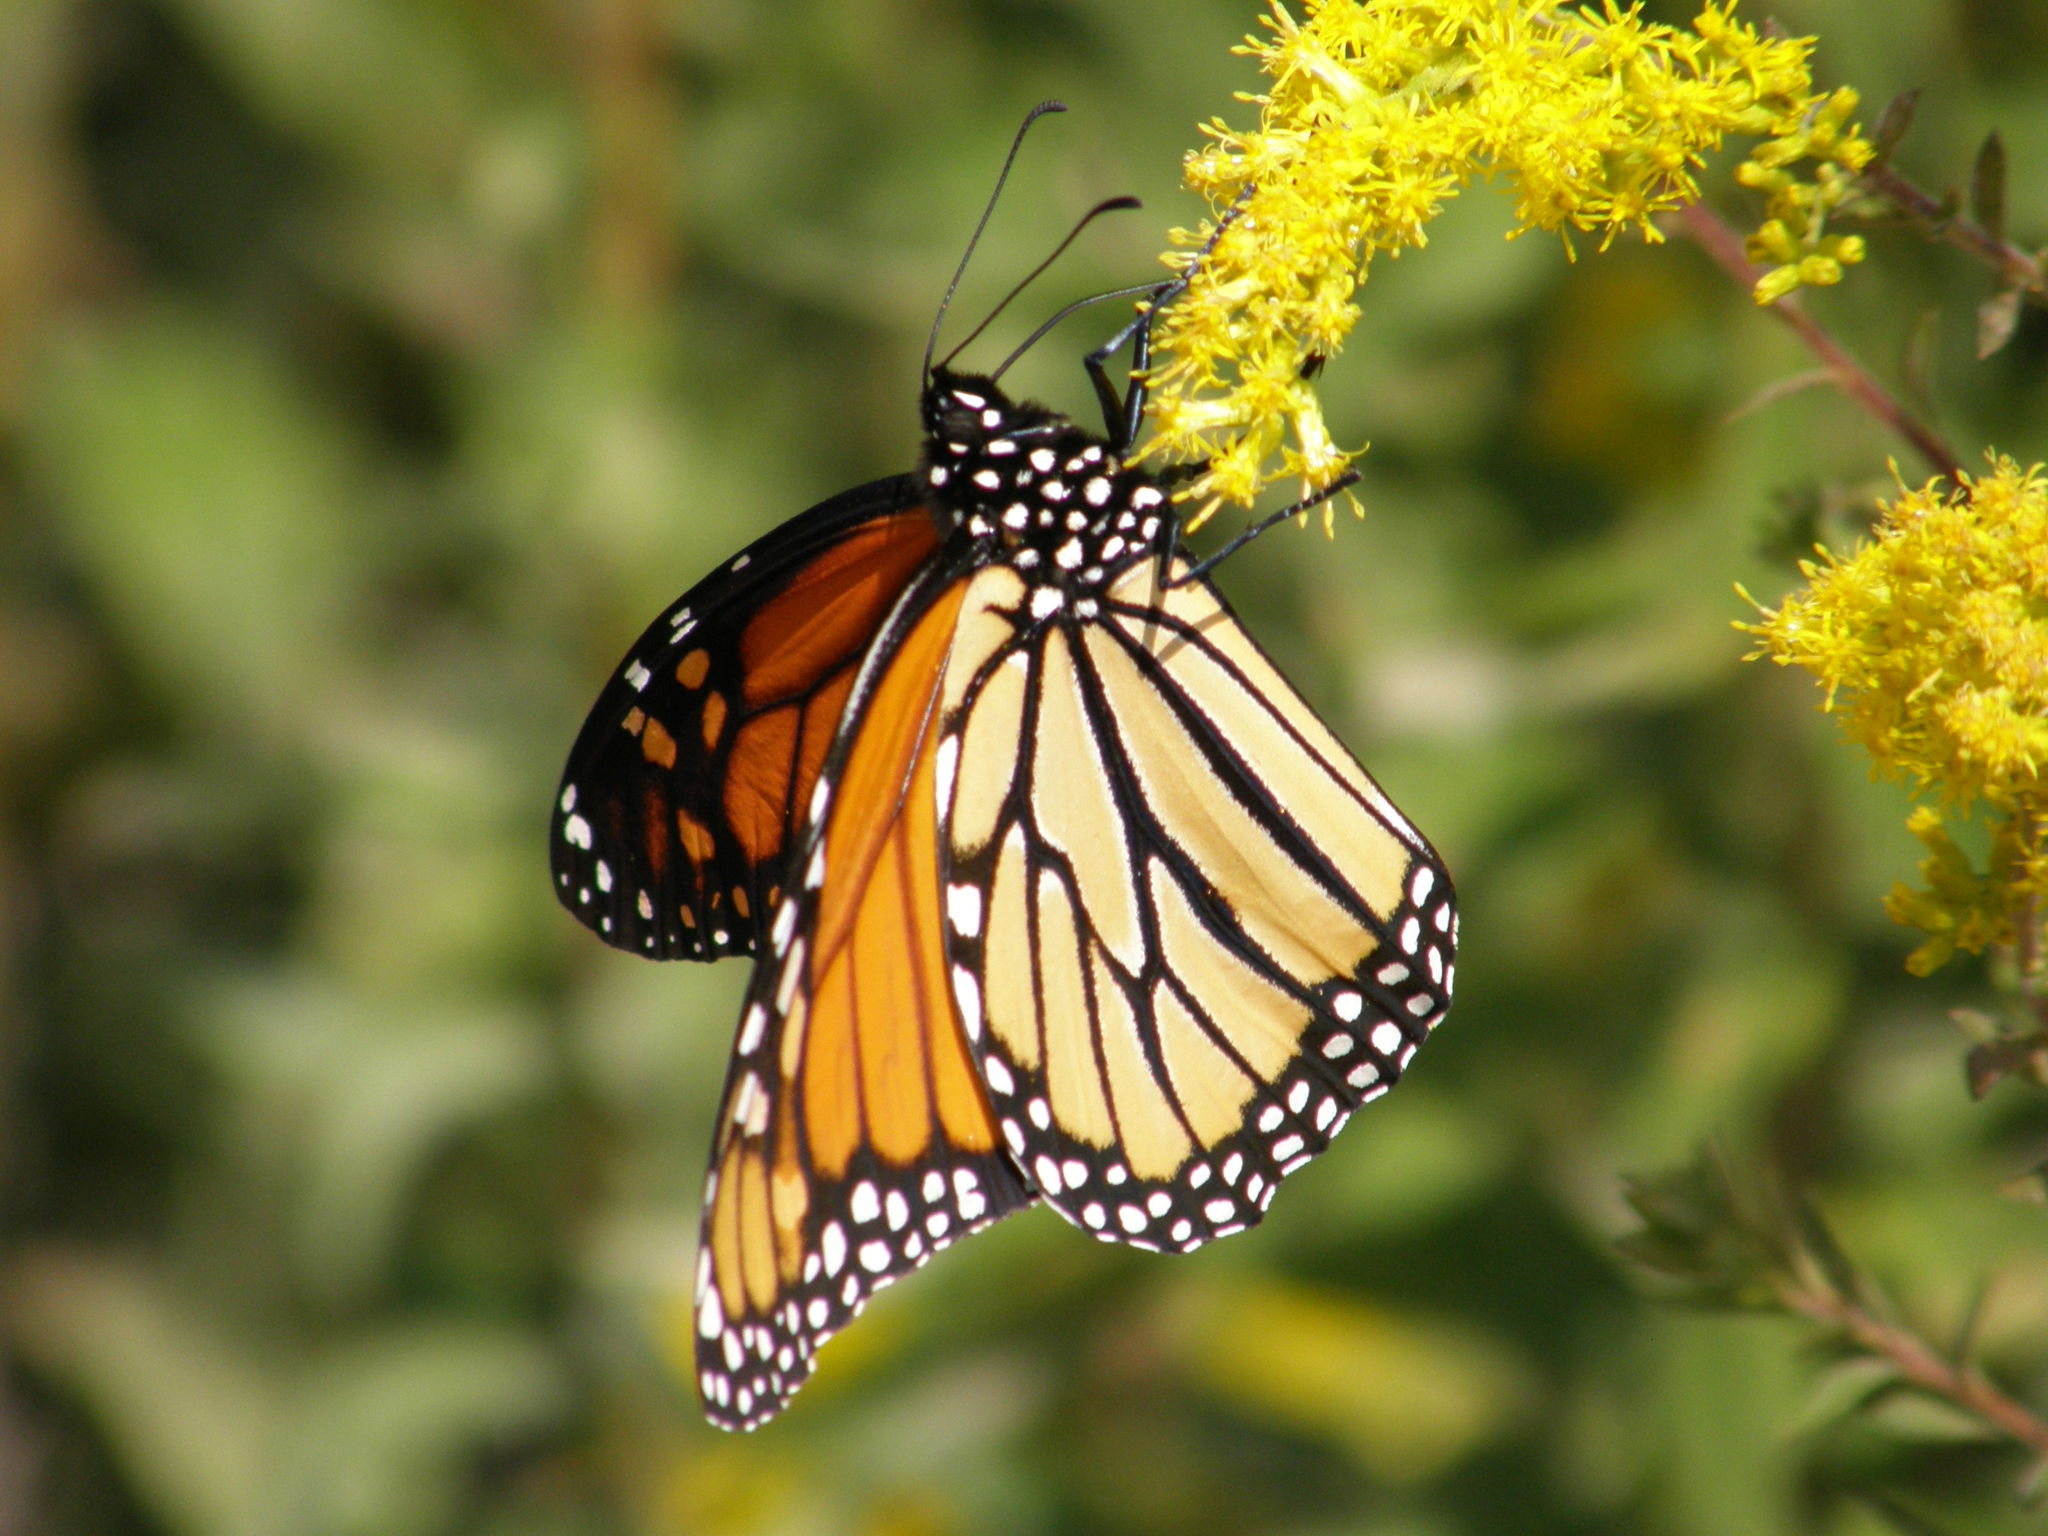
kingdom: Animalia
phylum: Arthropoda
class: Insecta
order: Lepidoptera
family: Nymphalidae
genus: Danaus
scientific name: Danaus plexippus
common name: Monarch
